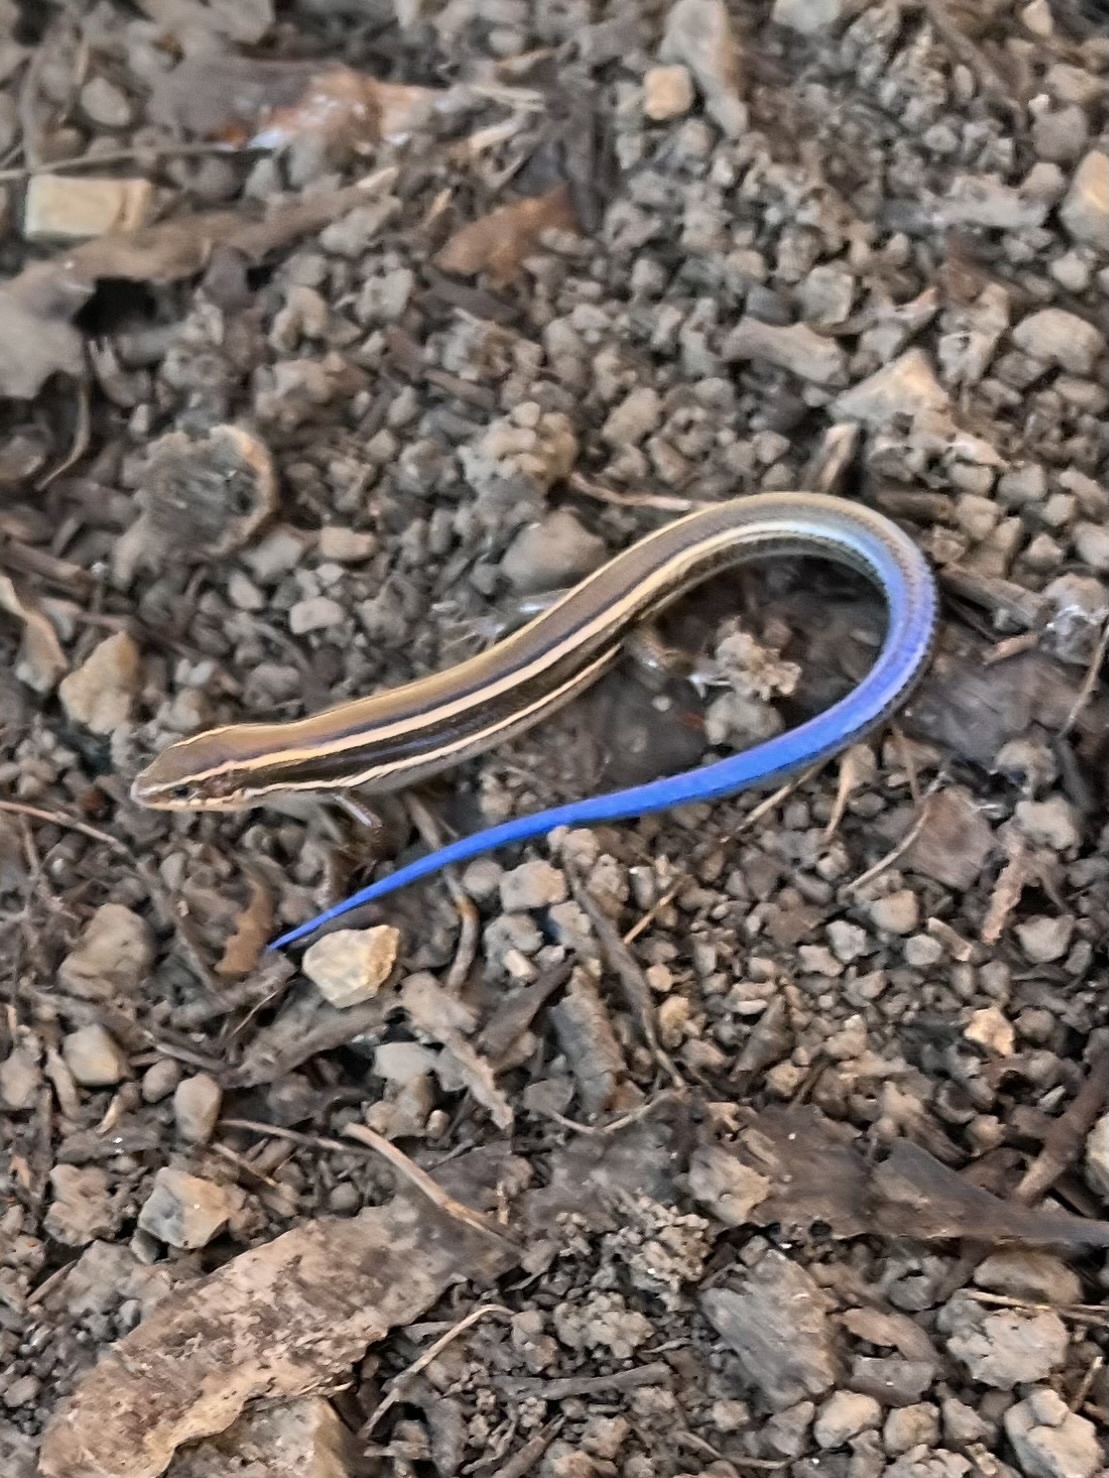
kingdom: Animalia
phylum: Chordata
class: Squamata
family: Scincidae
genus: Plestiodon
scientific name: Plestiodon skiltonianus
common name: Coronado island skink [interparietalis]
